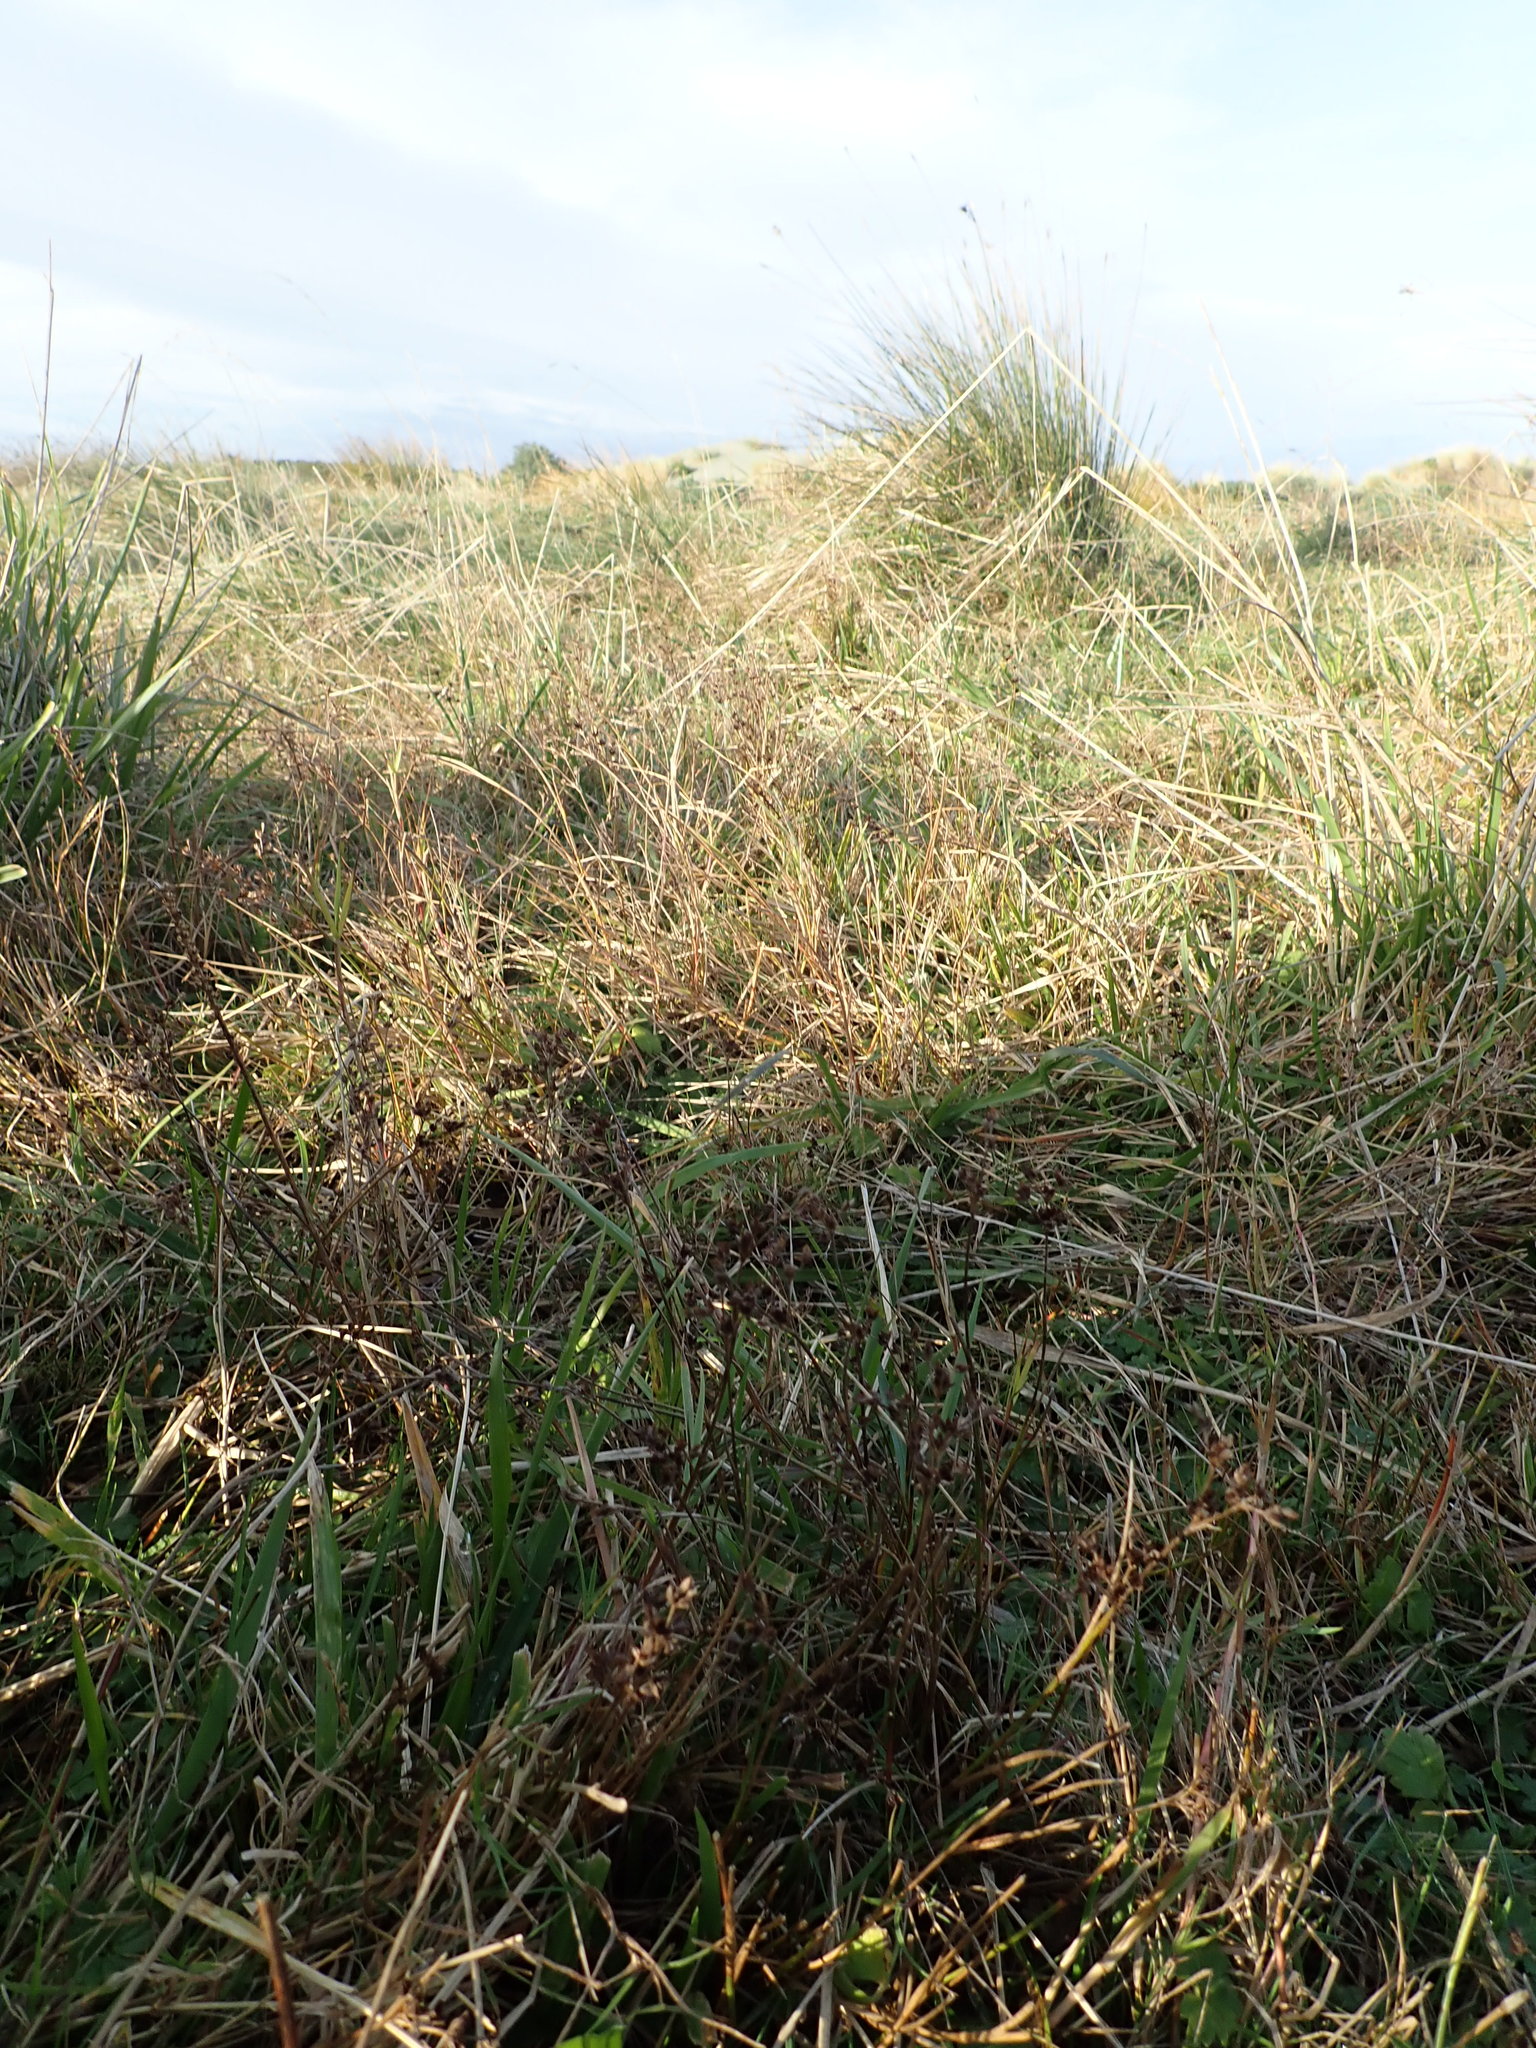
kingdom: Plantae
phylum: Tracheophyta
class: Liliopsida
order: Poales
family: Juncaceae
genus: Juncus
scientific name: Juncus articulatus
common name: Jointed rush
